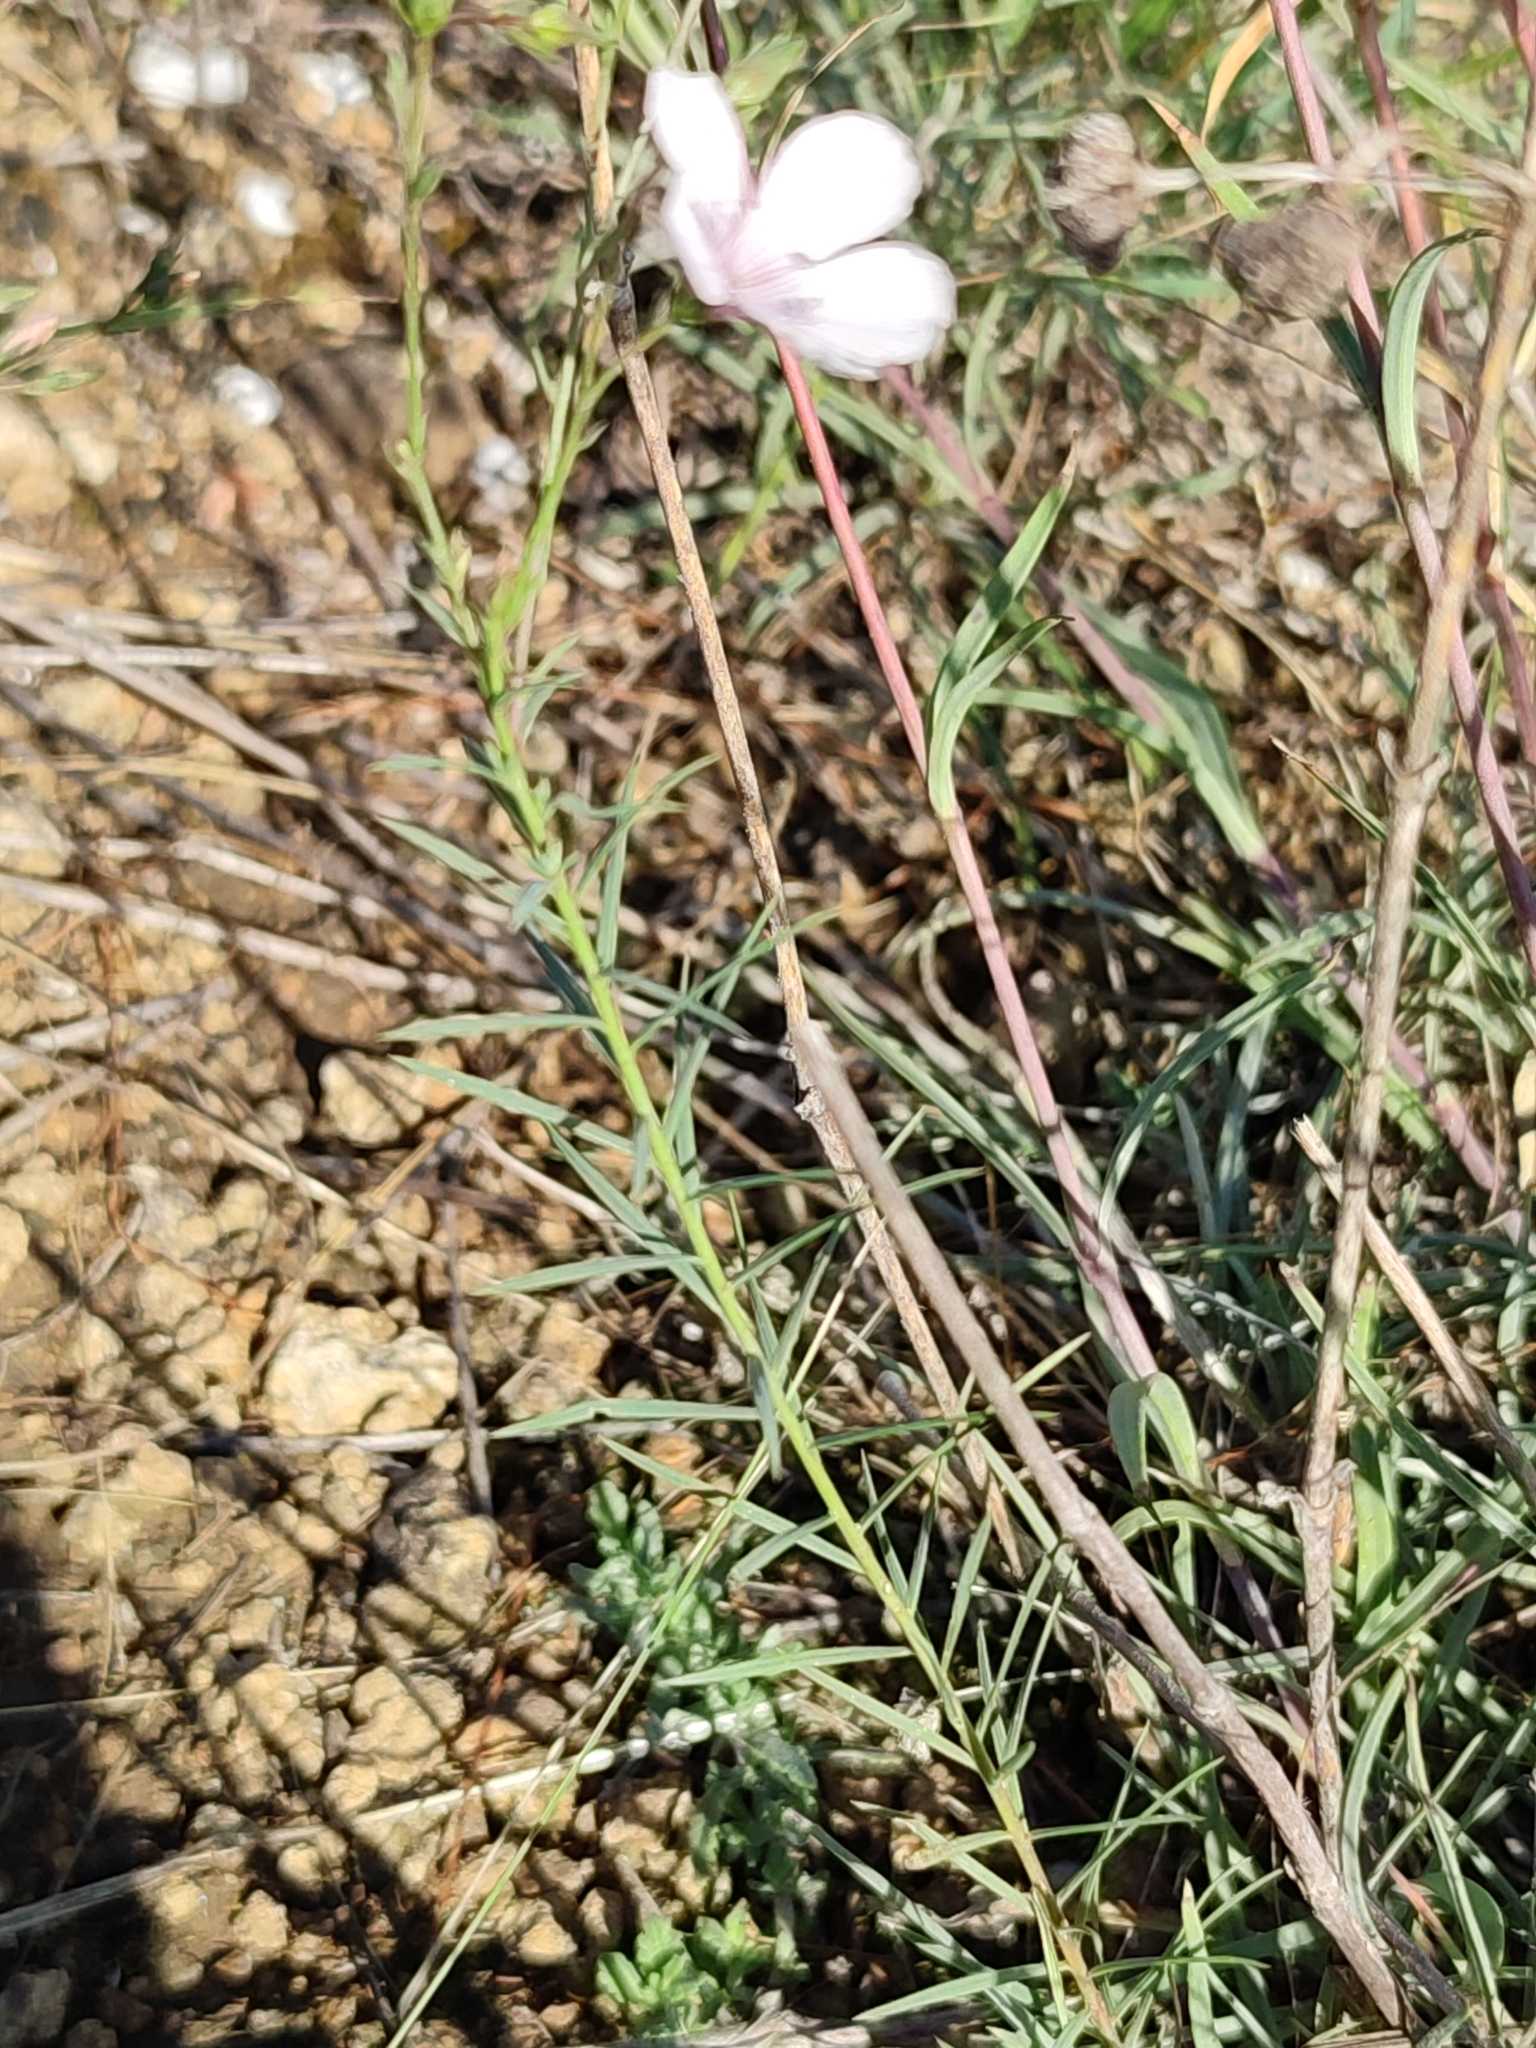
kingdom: Plantae
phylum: Tracheophyta
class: Magnoliopsida
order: Malpighiales
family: Linaceae
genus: Linum
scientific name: Linum tenuifolium
